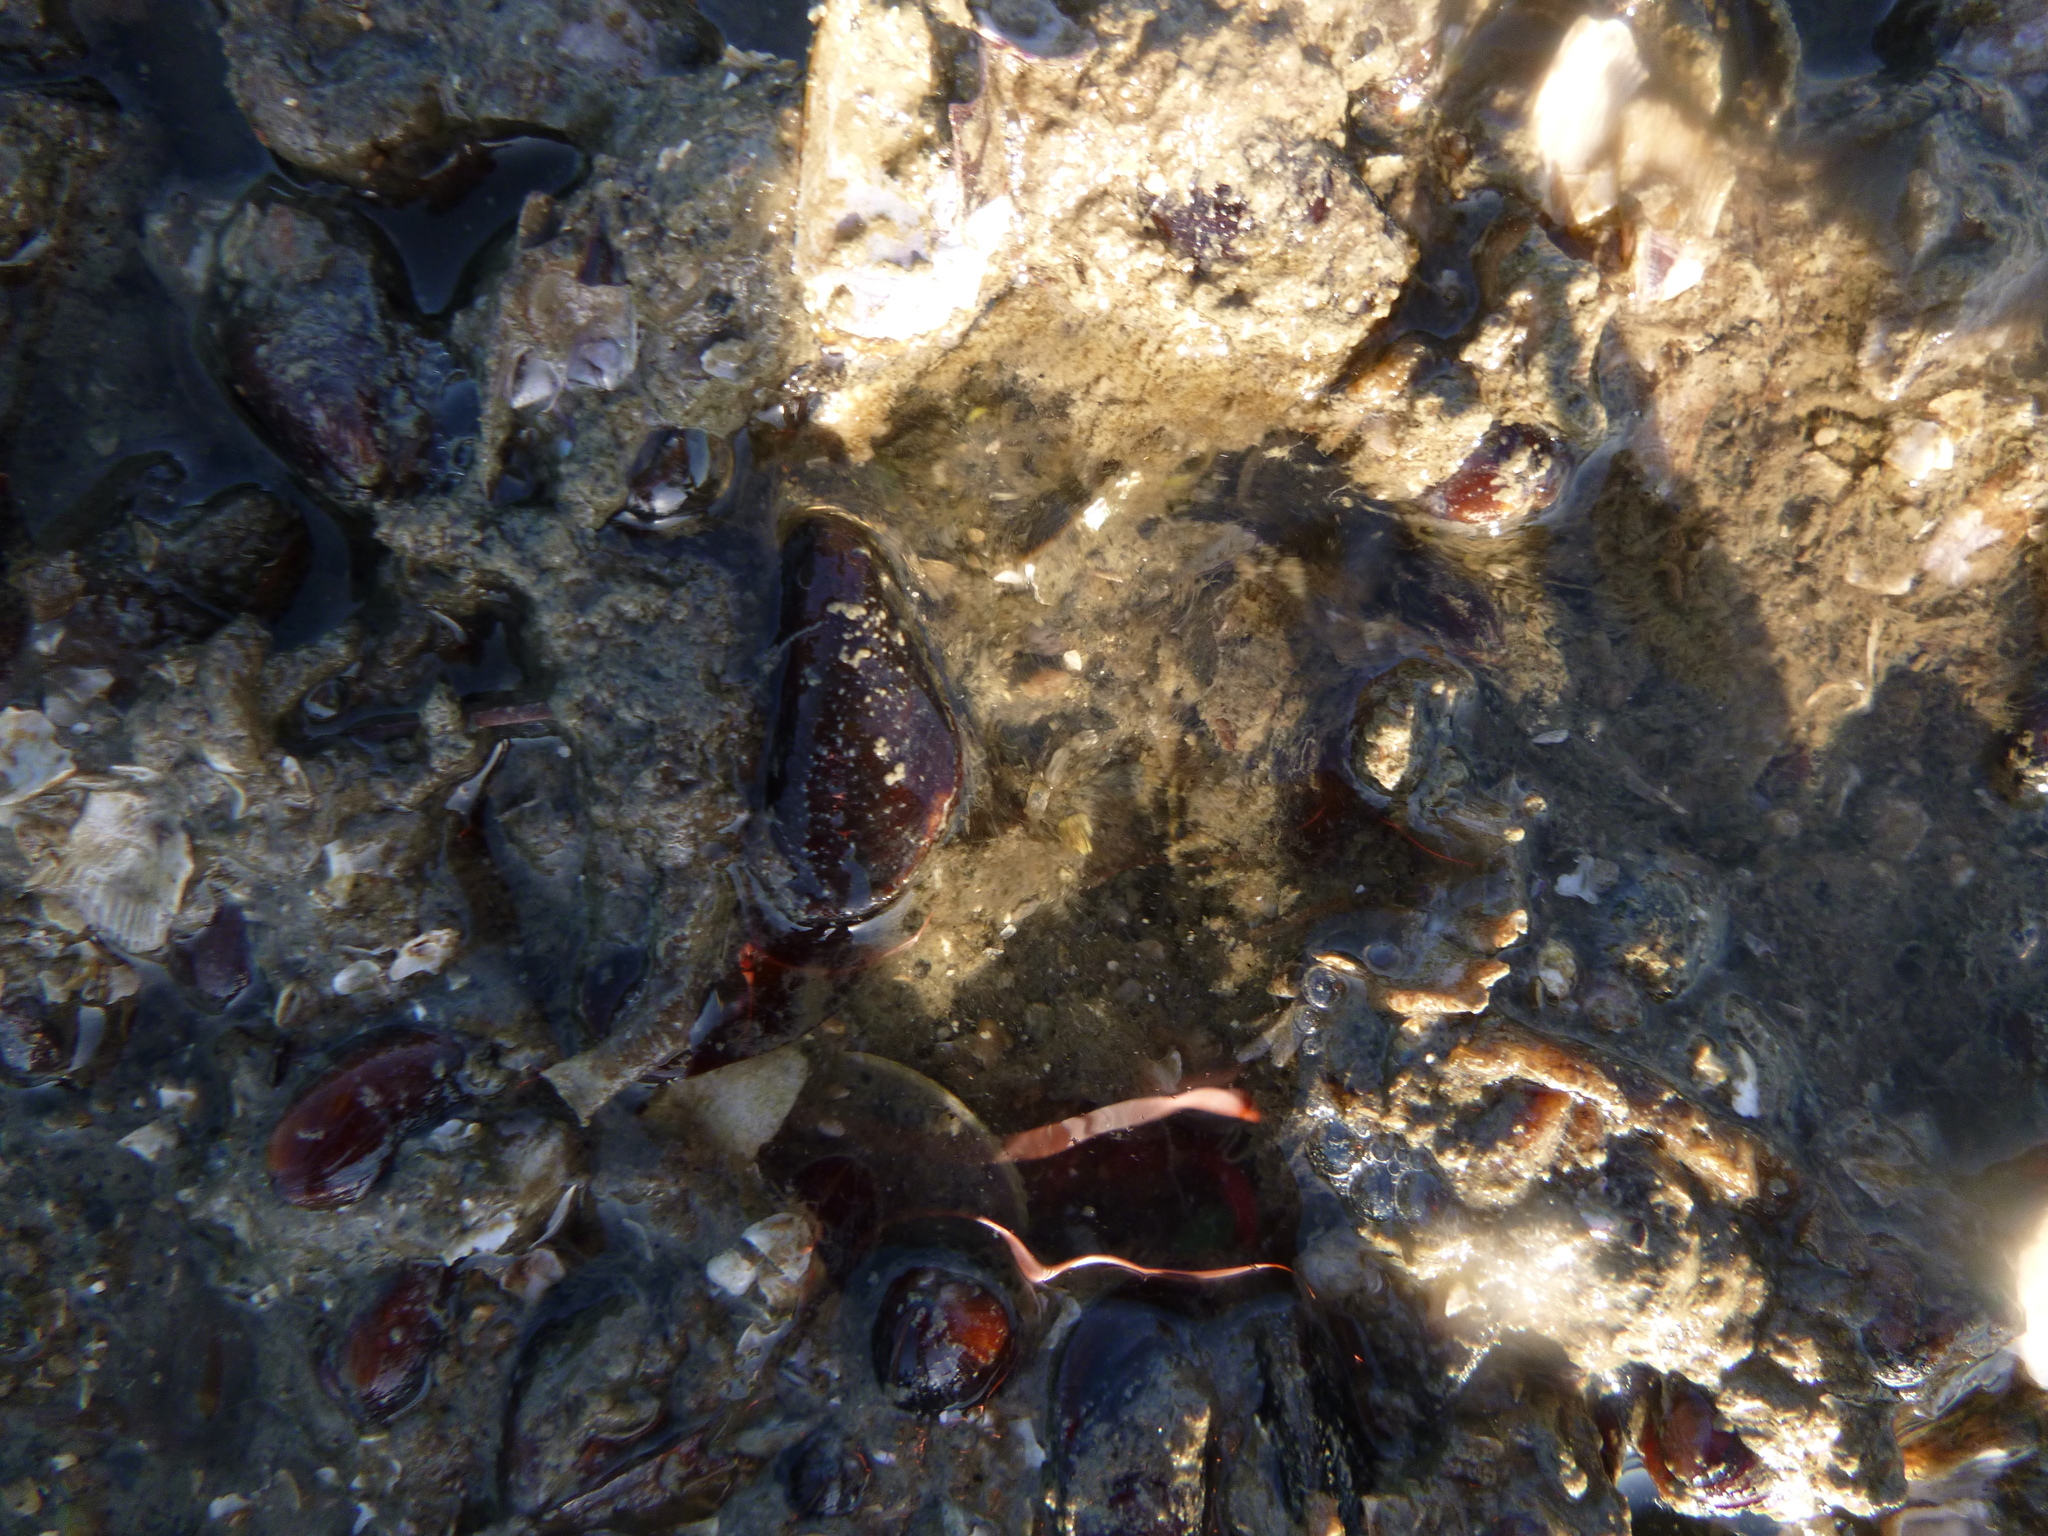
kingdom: Animalia
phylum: Mollusca
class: Bivalvia
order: Mytilida
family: Mytilidae
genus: Xenostrobus
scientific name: Xenostrobus securis
